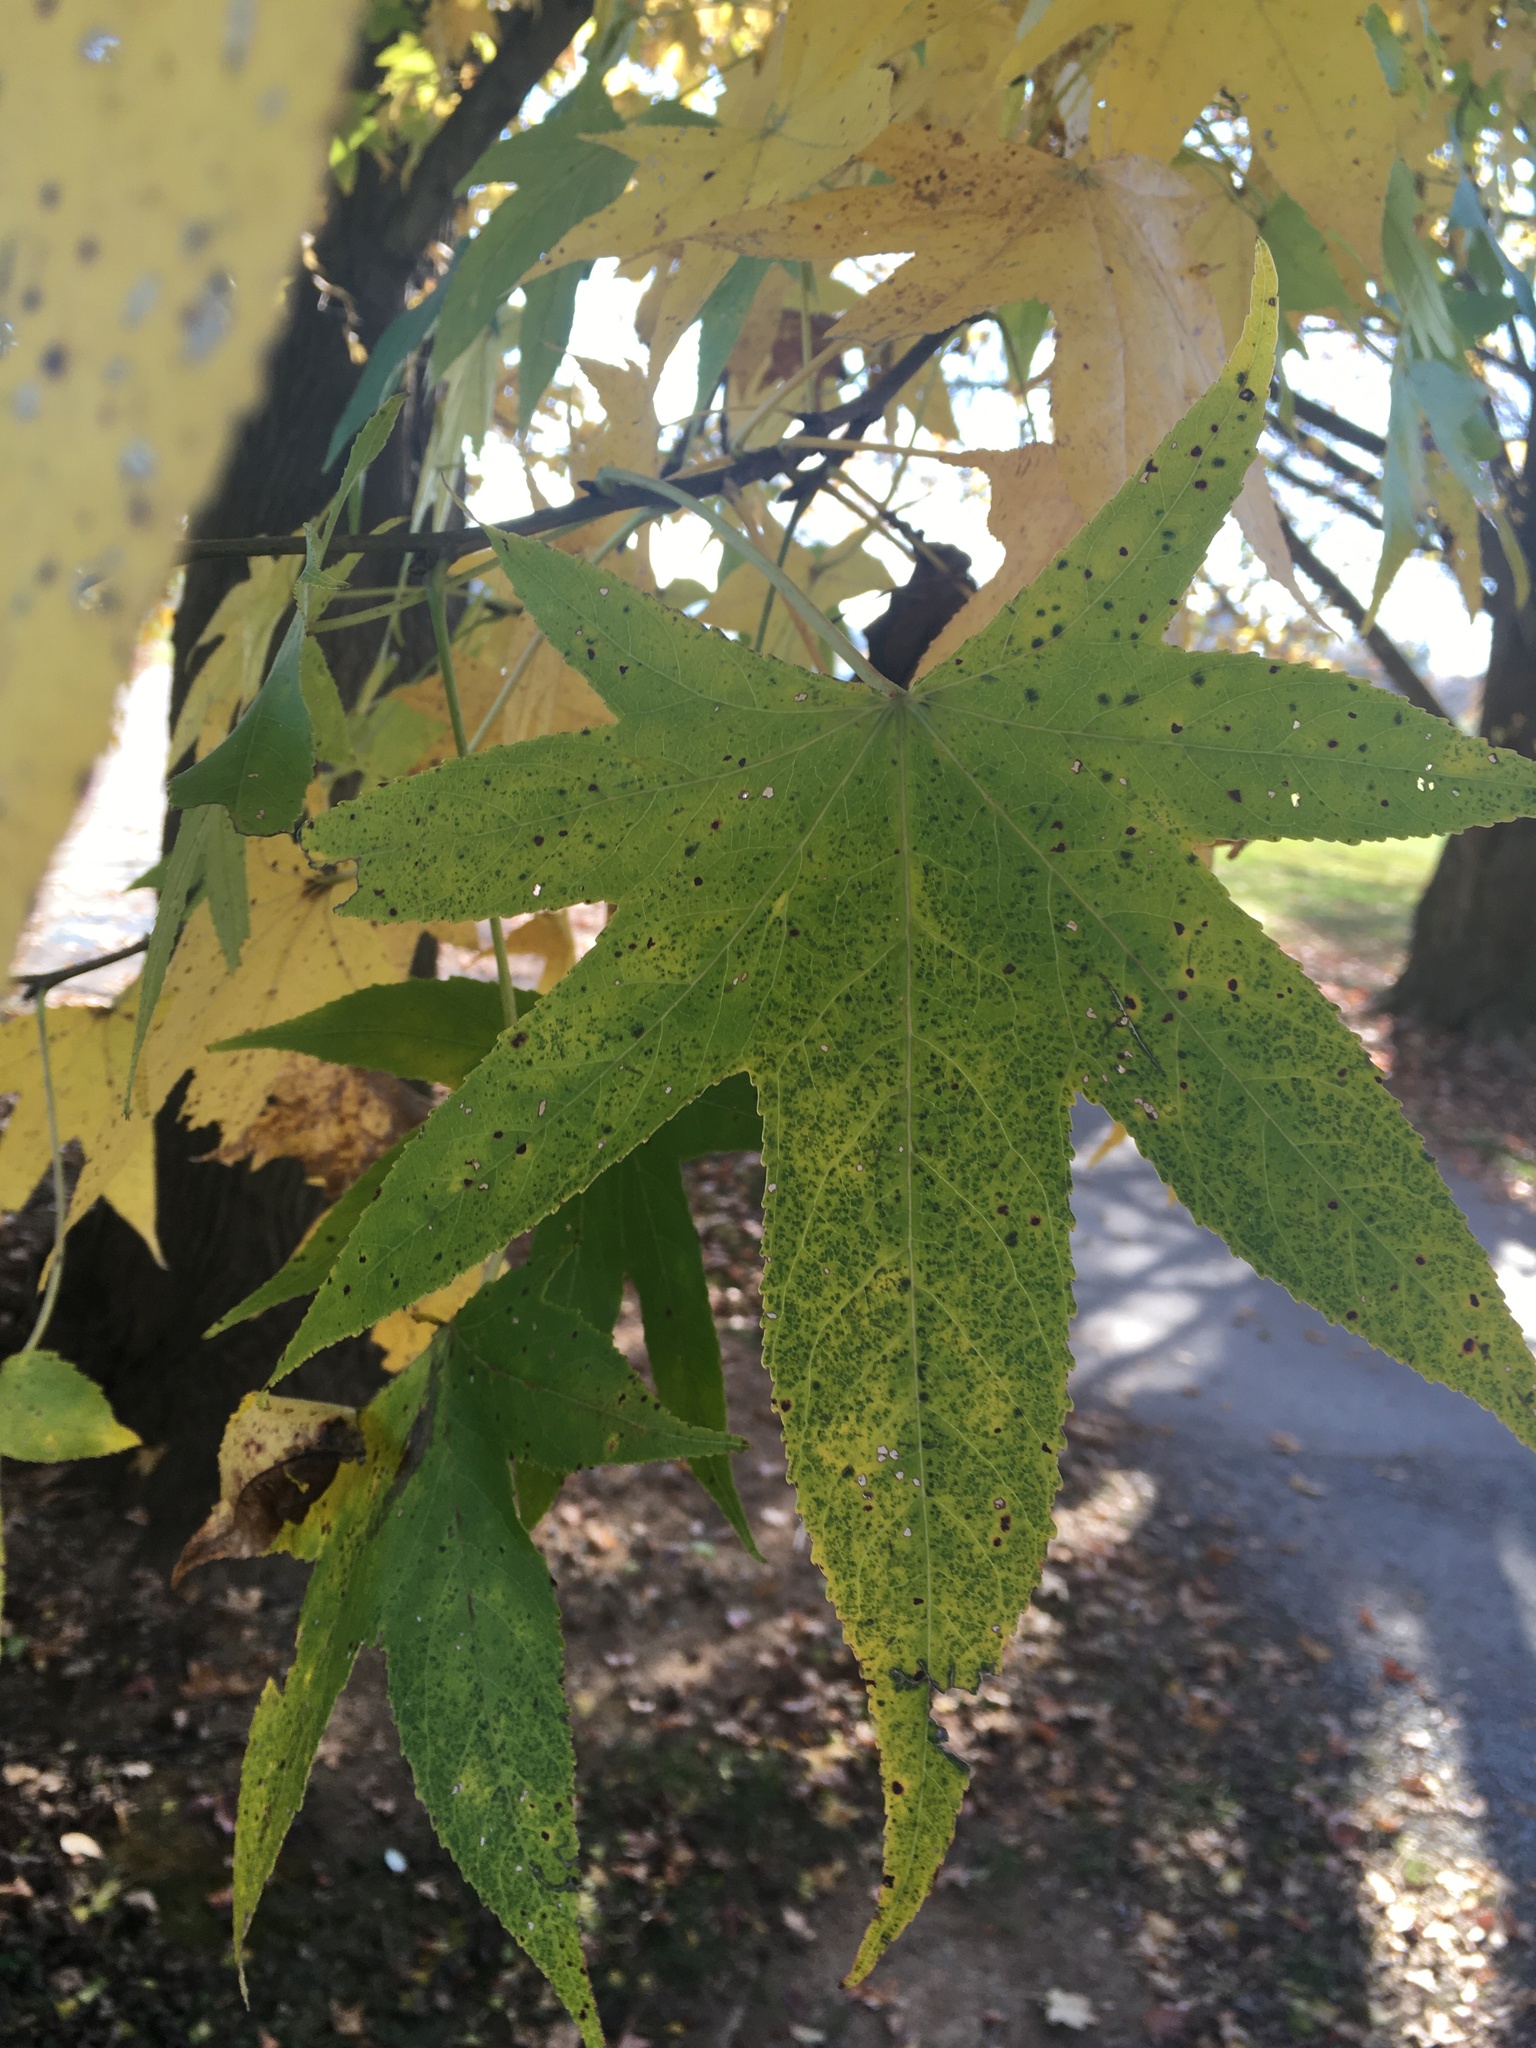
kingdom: Plantae
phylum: Tracheophyta
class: Magnoliopsida
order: Saxifragales
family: Altingiaceae
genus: Liquidambar
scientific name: Liquidambar styraciflua
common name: Sweet gum
